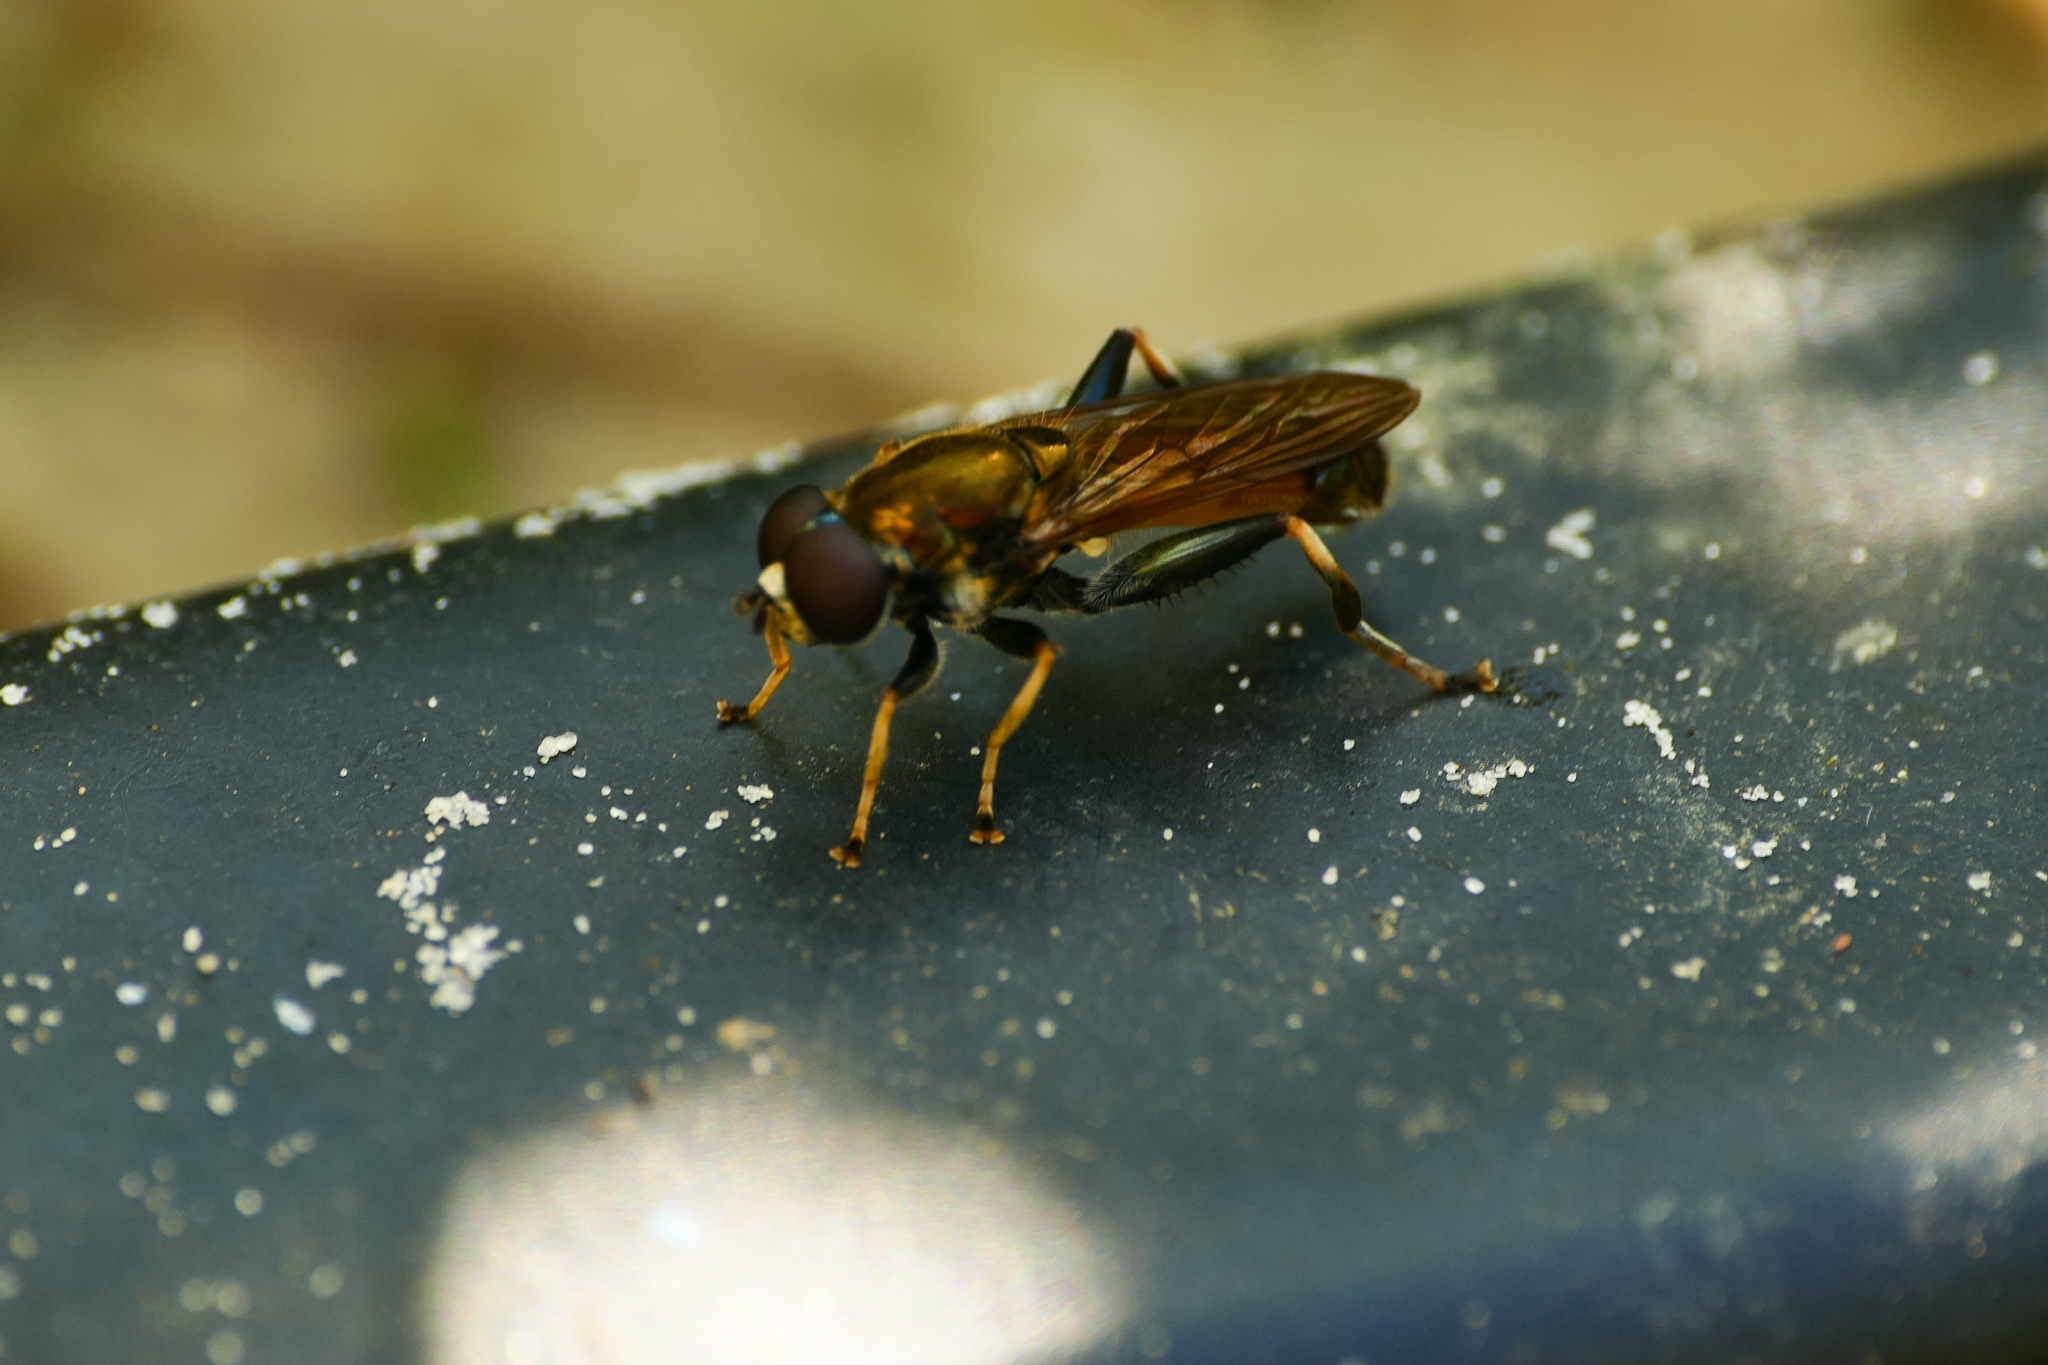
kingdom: Animalia
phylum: Arthropoda
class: Insecta
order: Diptera
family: Syrphidae
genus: Xylota
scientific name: Xylota segnis
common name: Brown-toed forest fly
